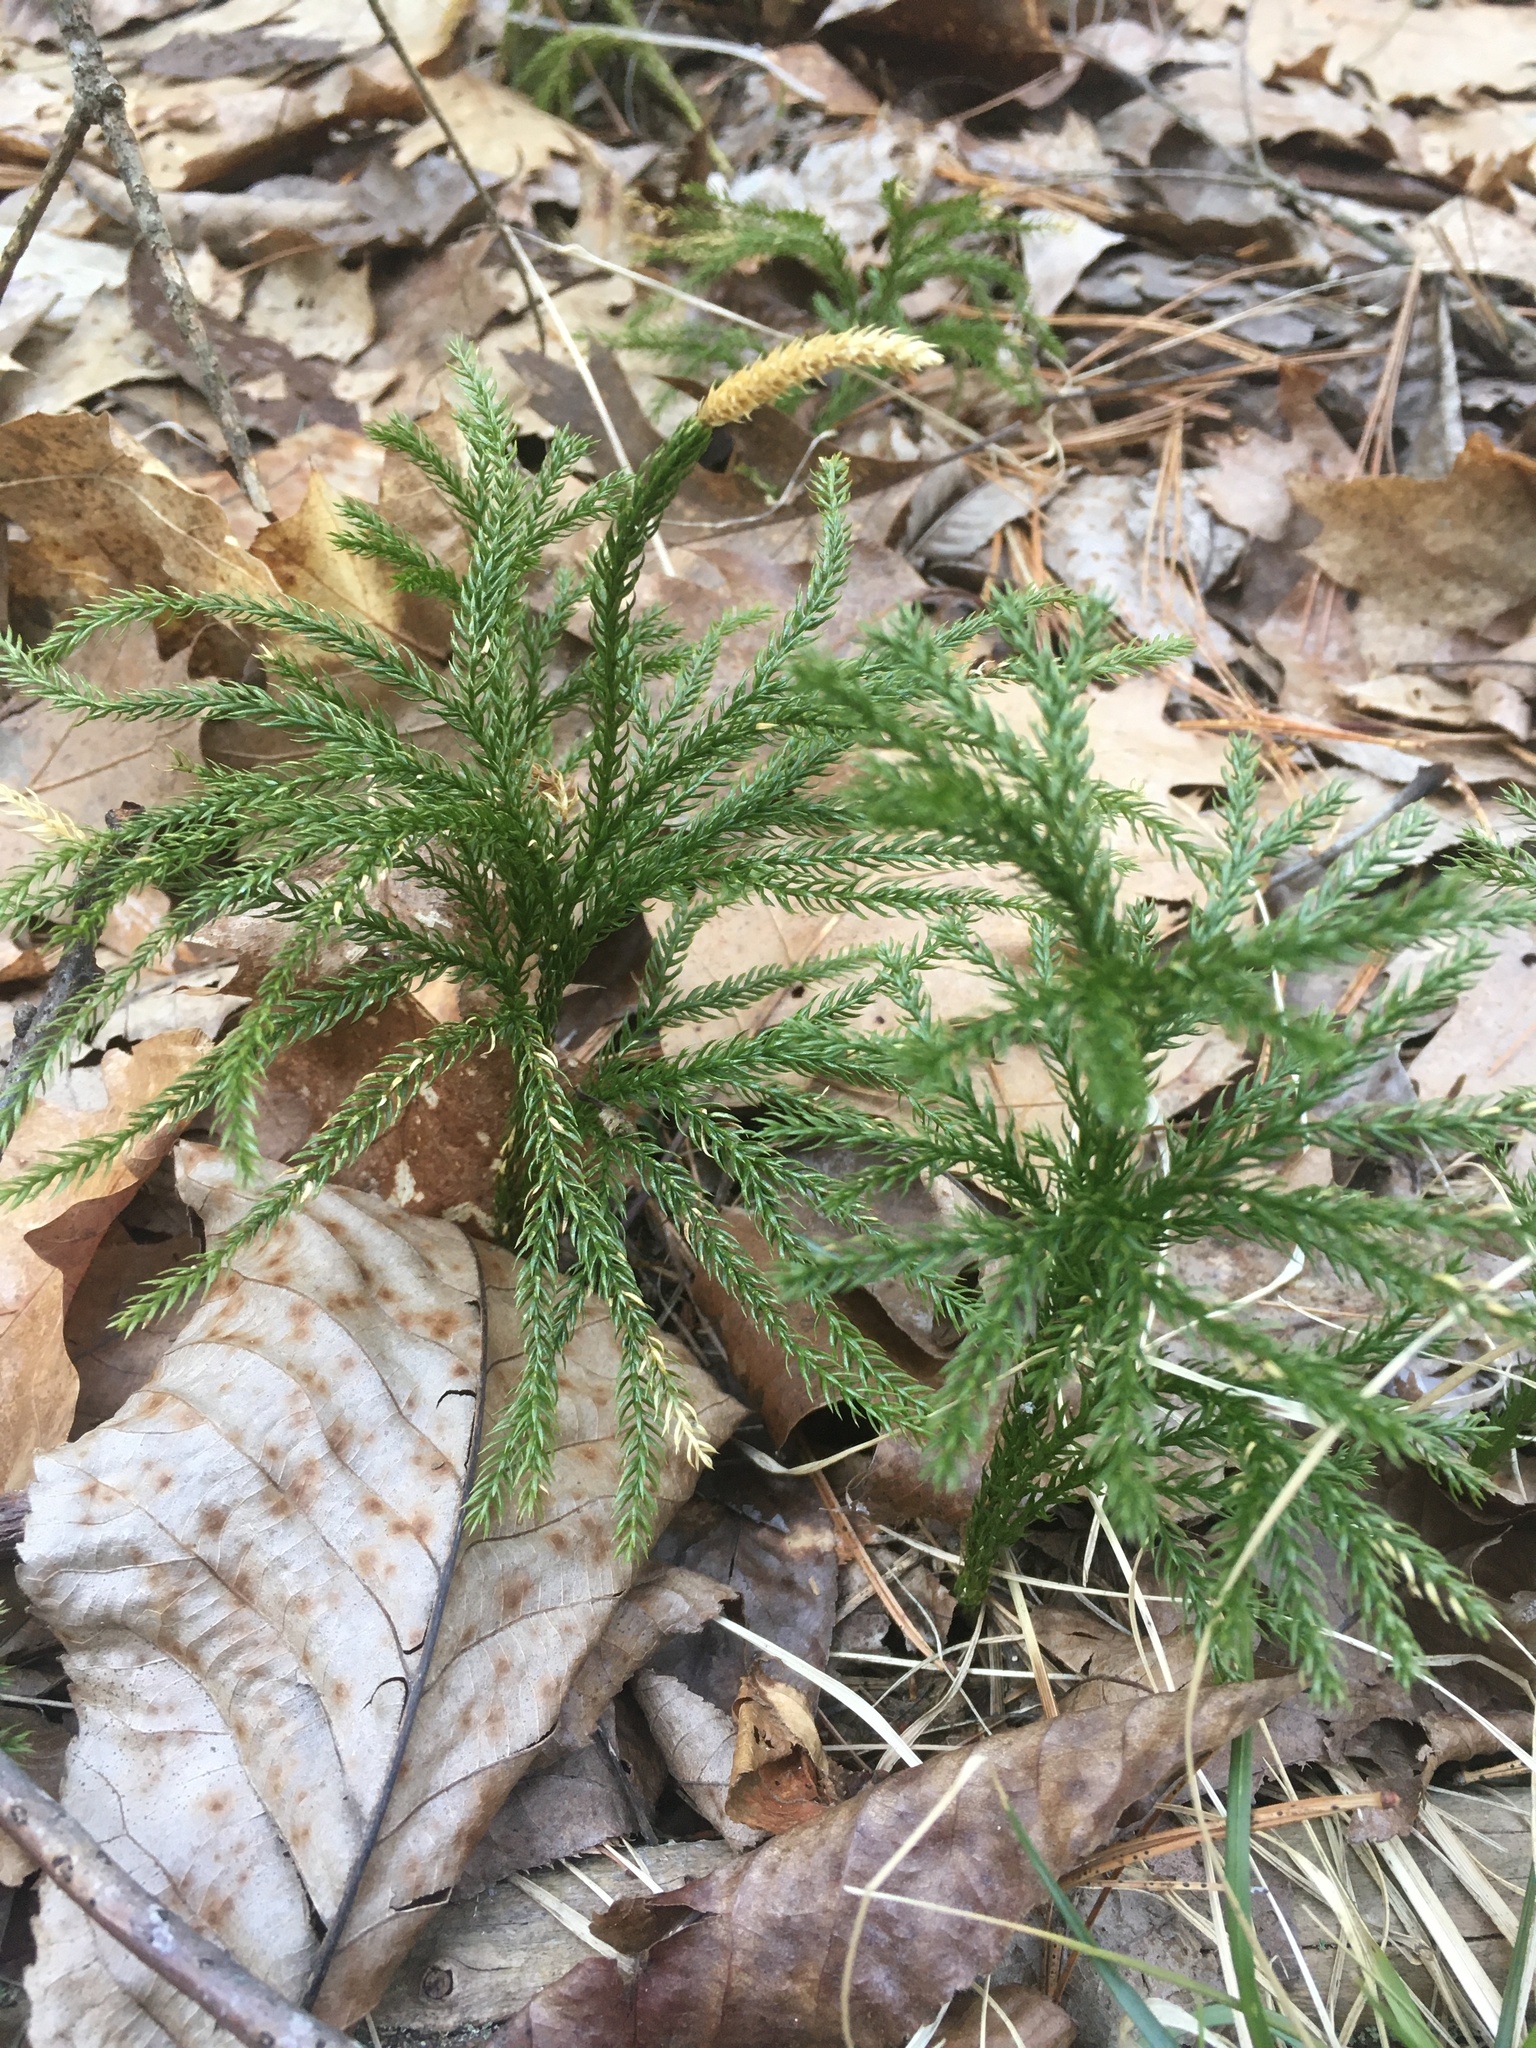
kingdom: Plantae
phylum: Tracheophyta
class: Lycopodiopsida
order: Lycopodiales
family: Lycopodiaceae
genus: Dendrolycopodium
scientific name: Dendrolycopodium obscurum
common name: Common ground-pine
